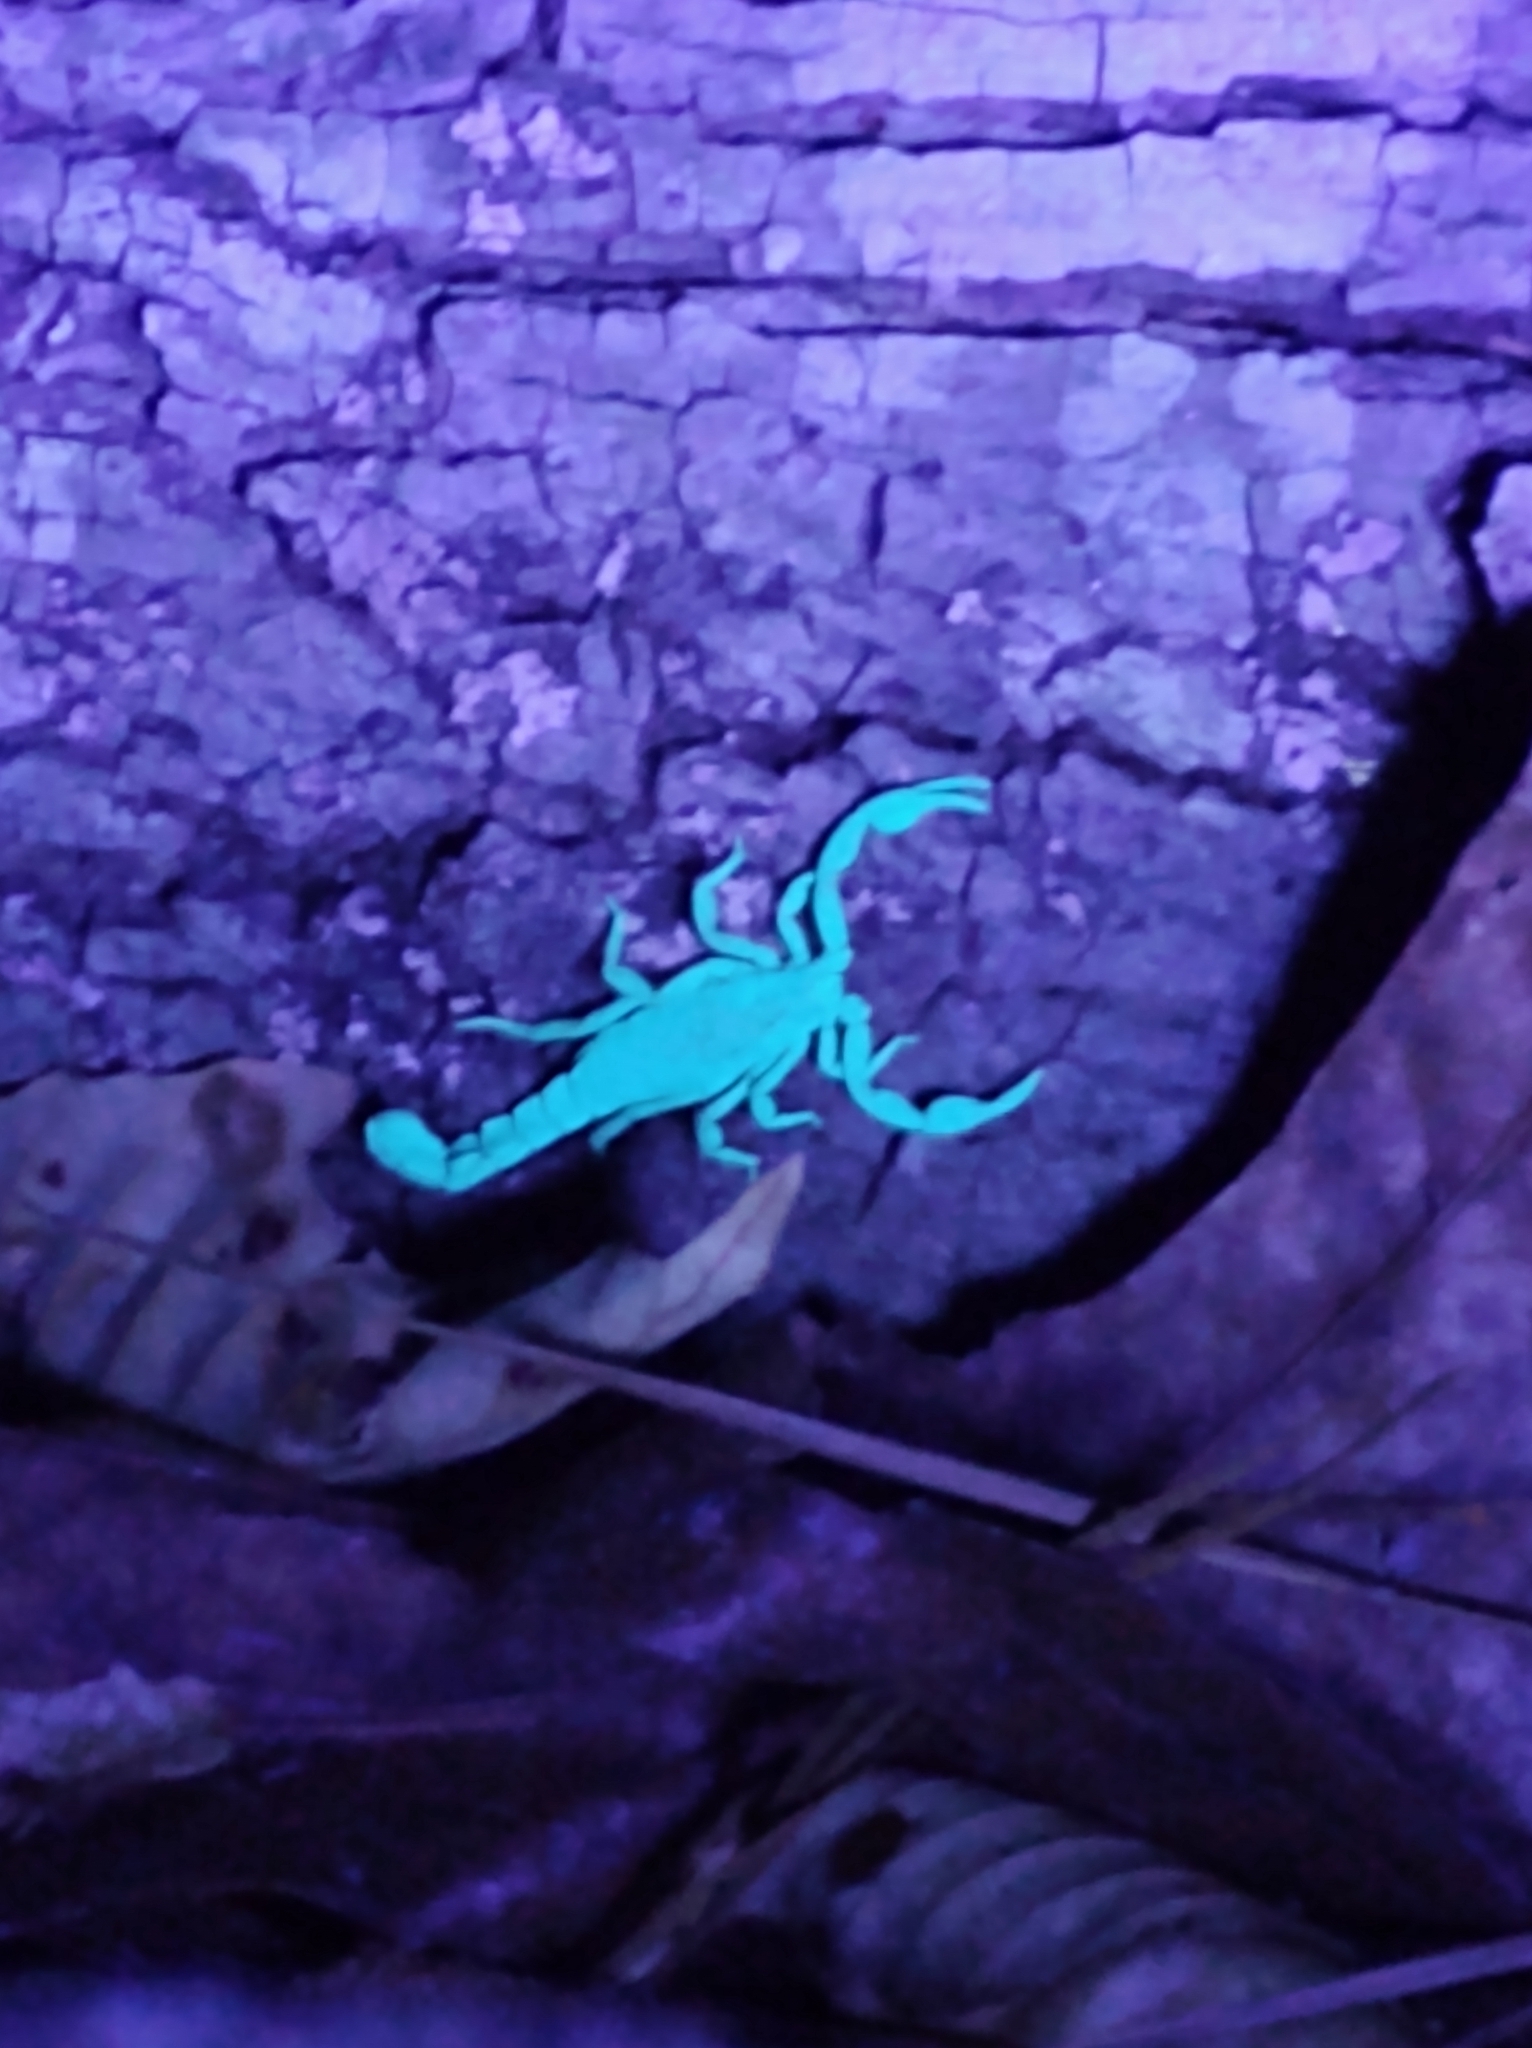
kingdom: Animalia
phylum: Arthropoda
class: Arachnida
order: Scorpiones
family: Vaejovidae
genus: Vaejovis
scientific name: Vaejovis carolinianus
